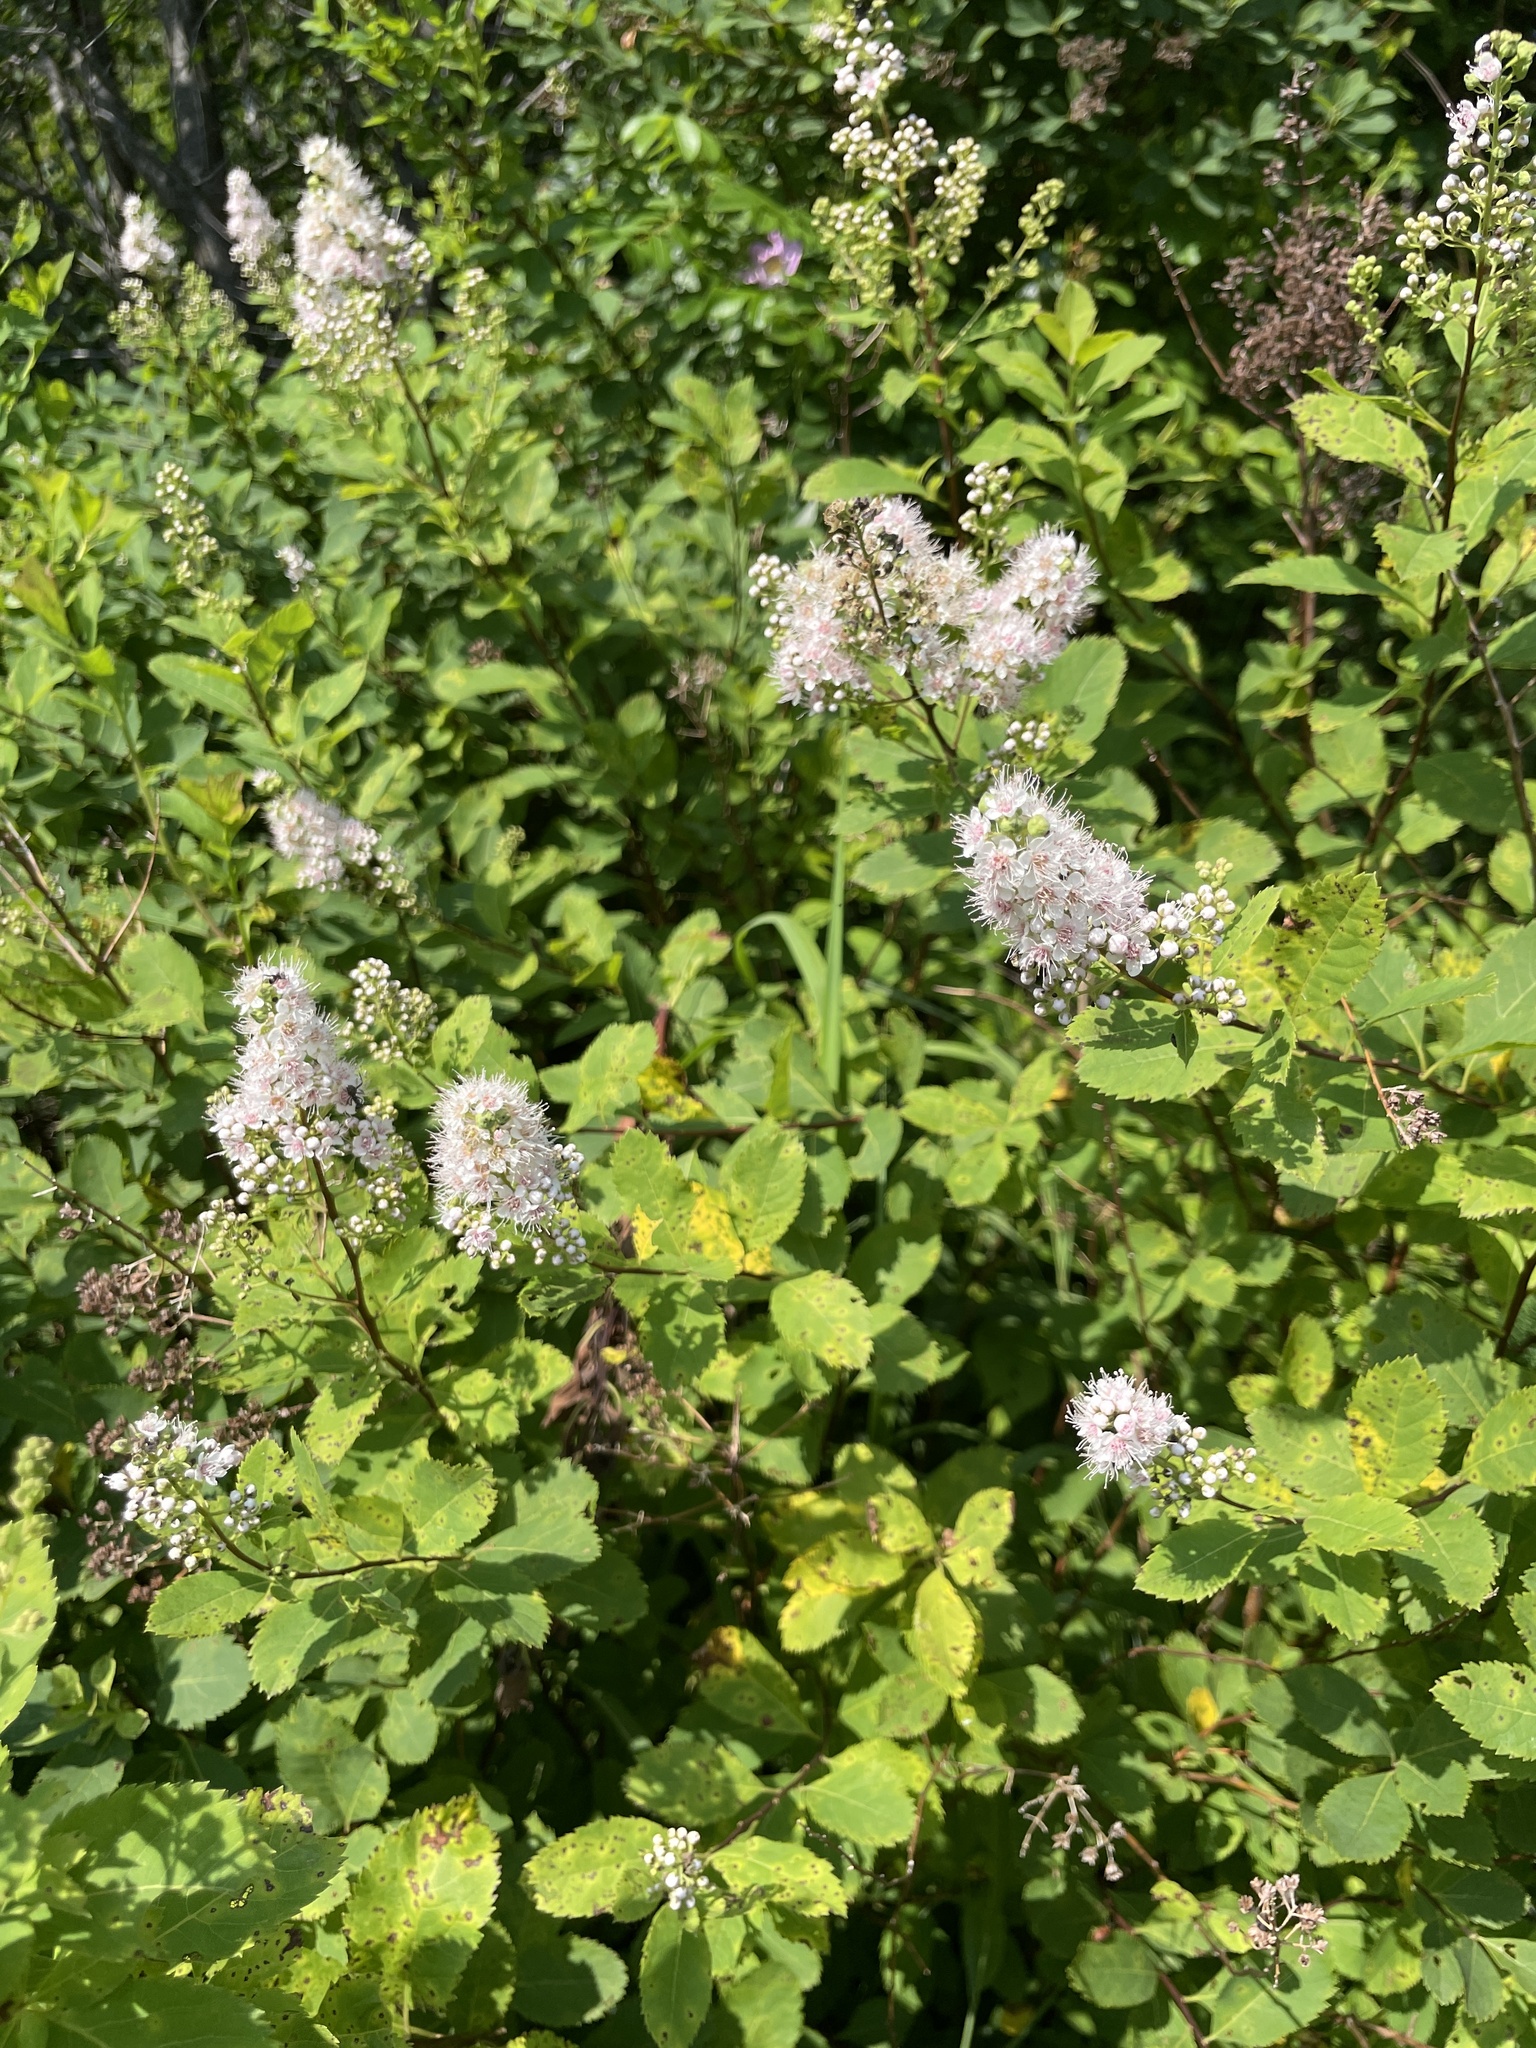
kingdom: Plantae
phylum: Tracheophyta
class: Magnoliopsida
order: Rosales
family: Rosaceae
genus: Spiraea
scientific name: Spiraea alba
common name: Pale bridewort
